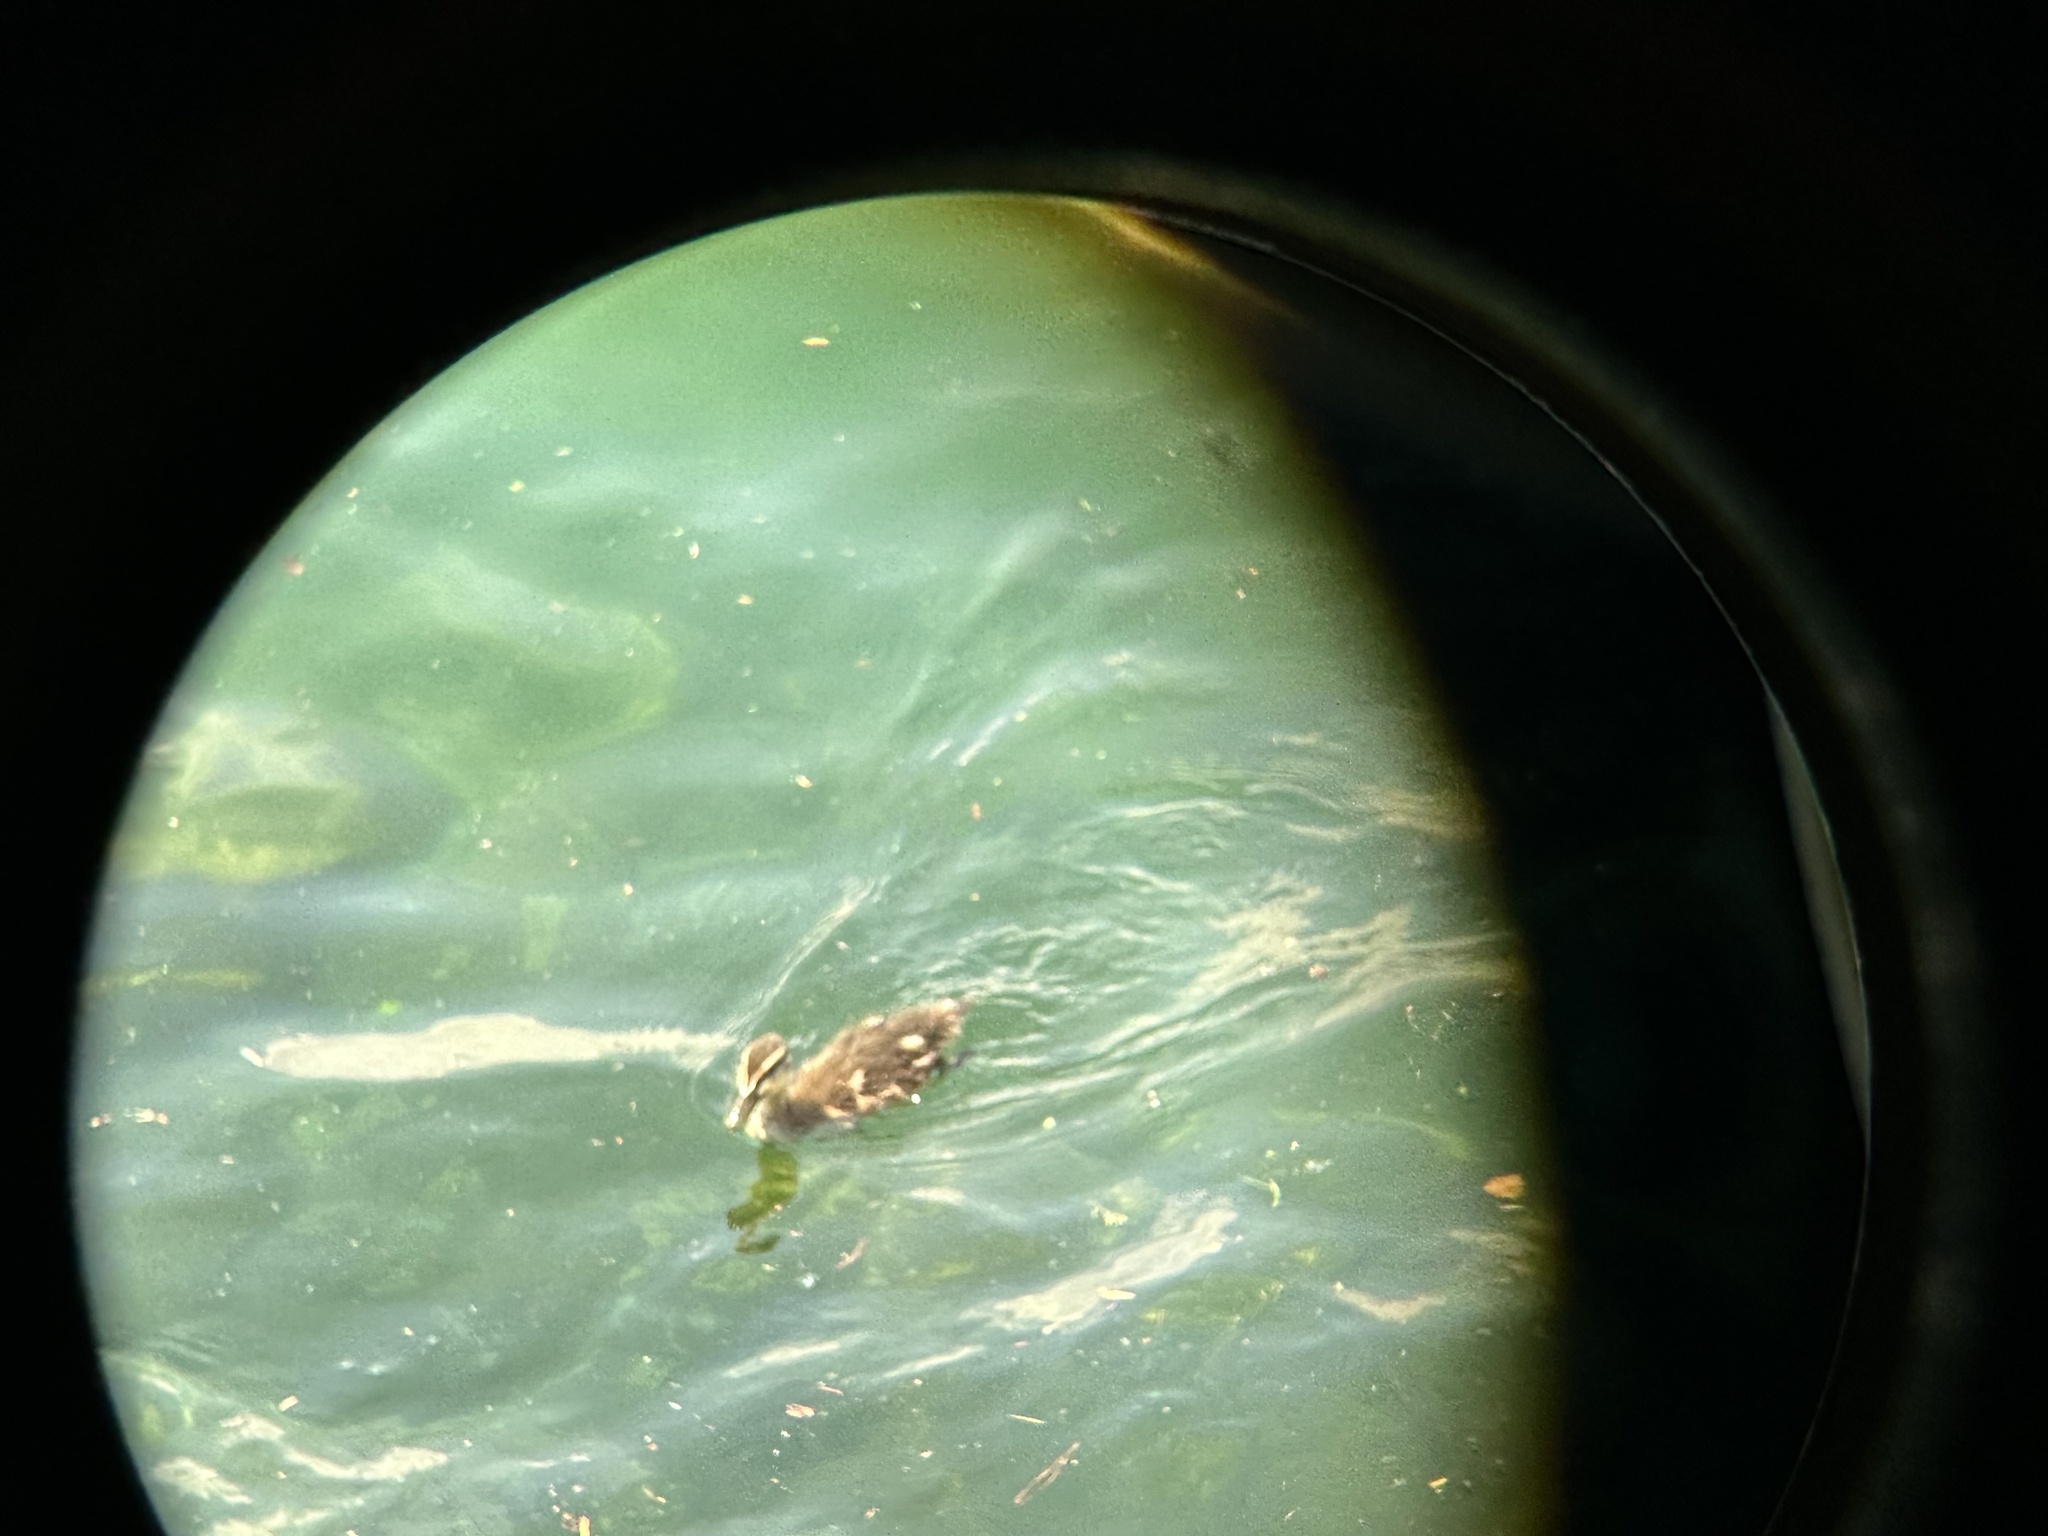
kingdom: Animalia
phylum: Chordata
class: Aves
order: Anseriformes
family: Anatidae
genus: Anas
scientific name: Anas platyrhynchos
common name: Mallard
